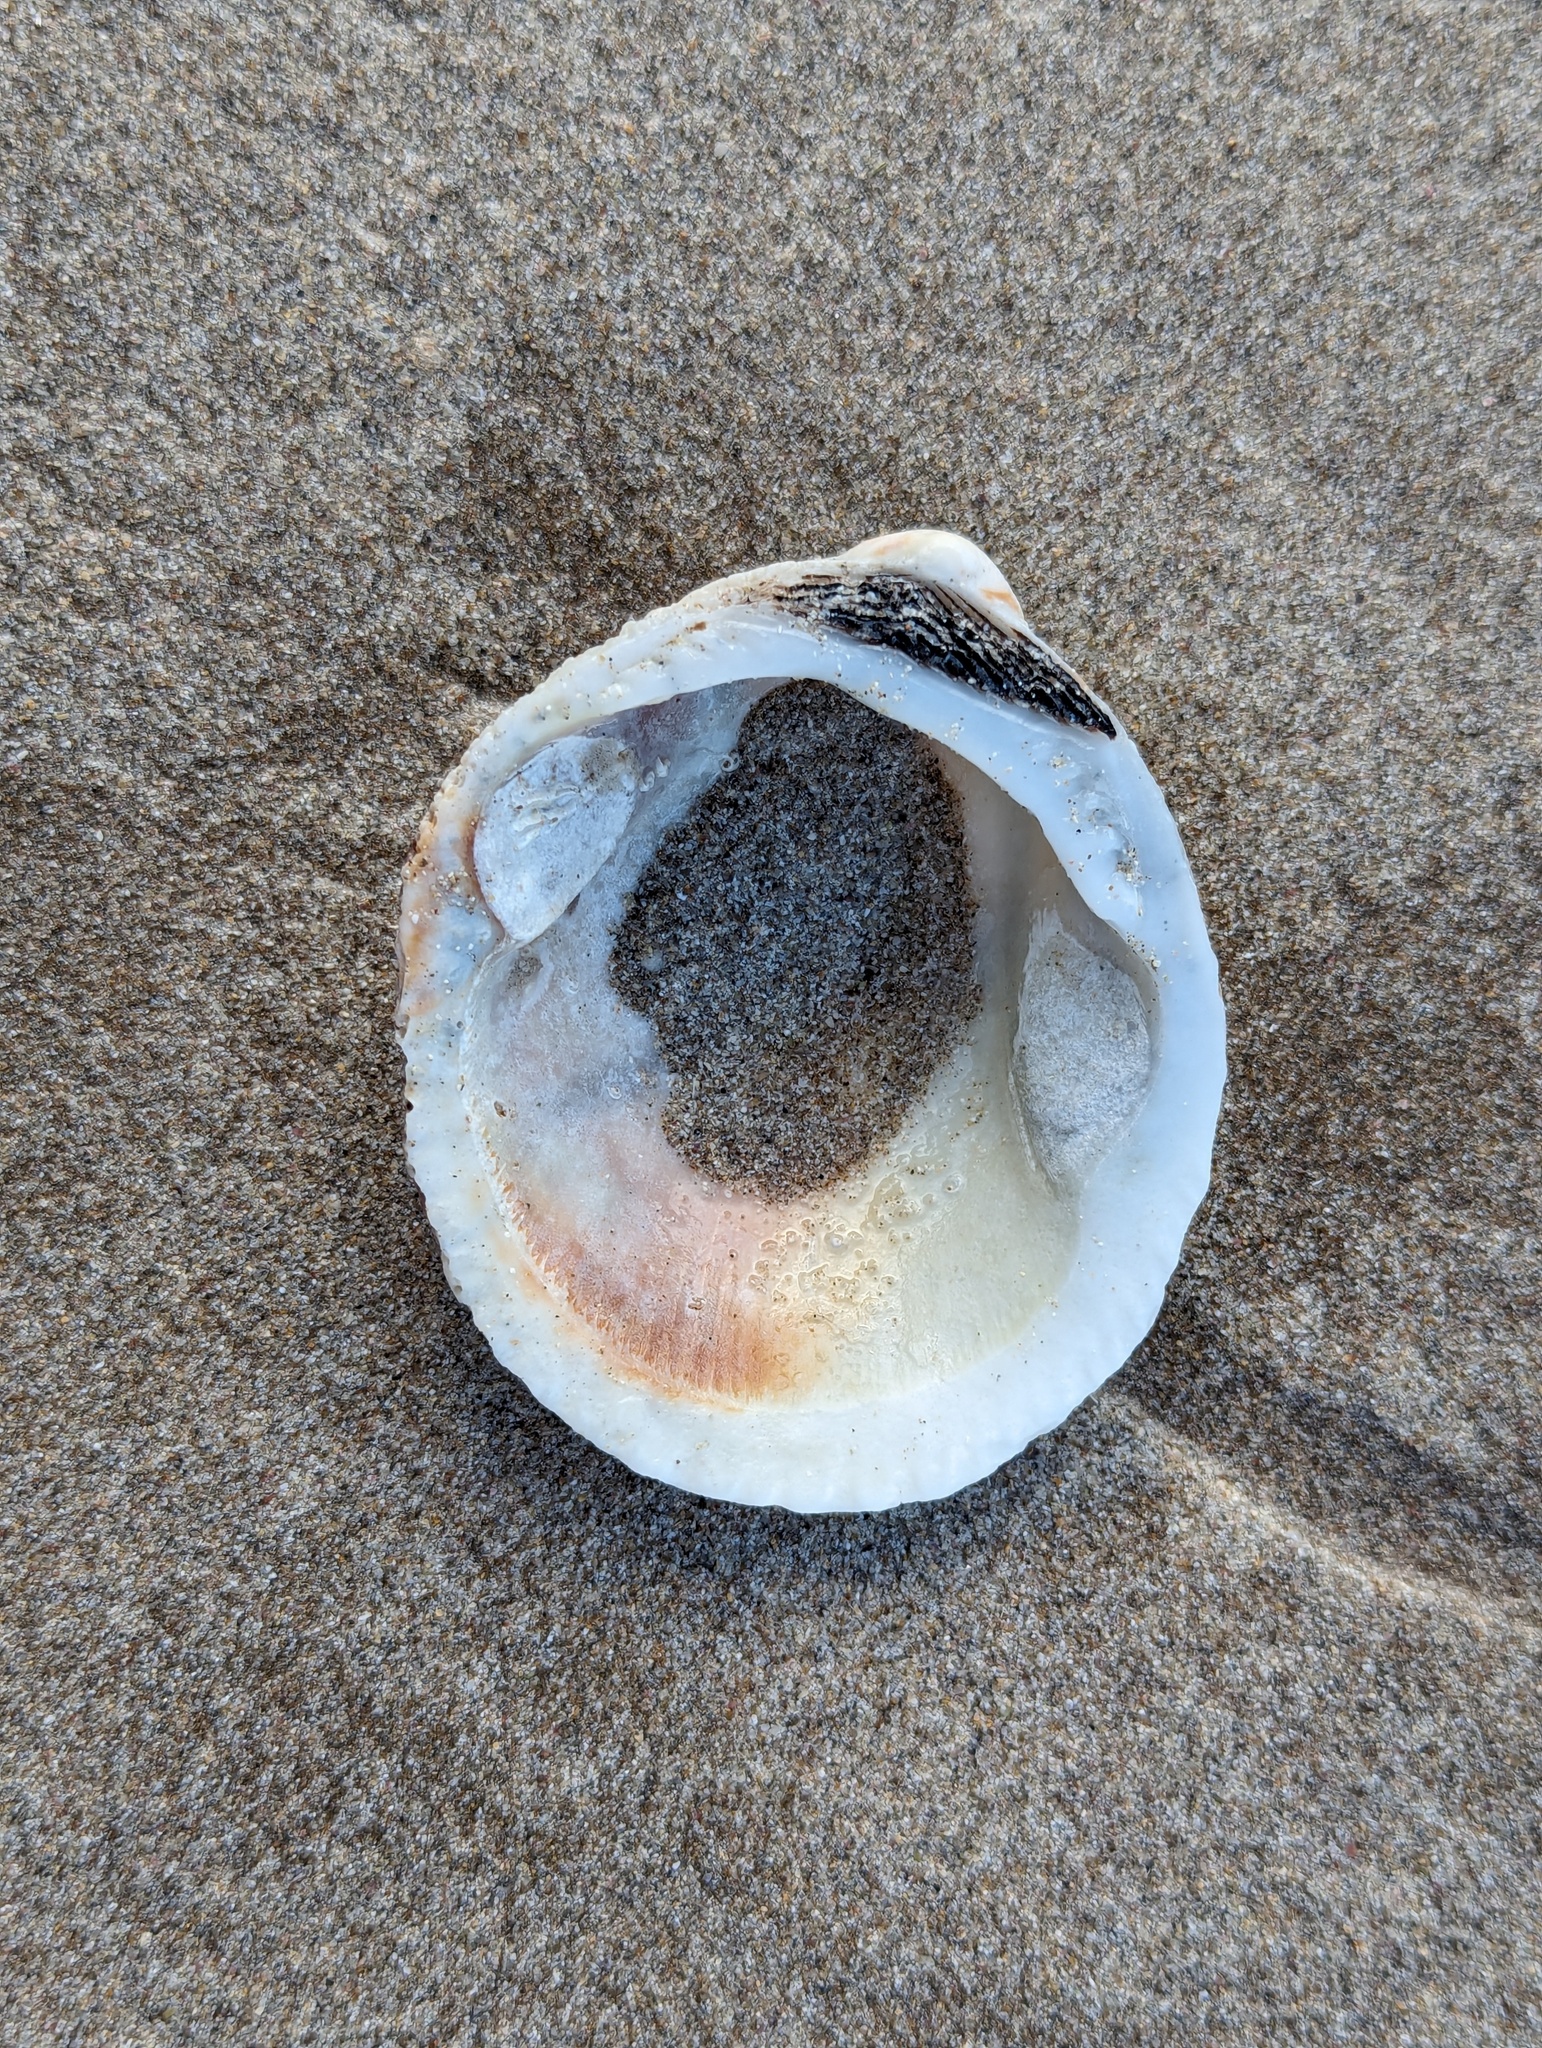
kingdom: Animalia
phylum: Mollusca
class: Bivalvia
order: Arcida
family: Glycymerididae
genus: Tucetona
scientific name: Tucetona laticostata
